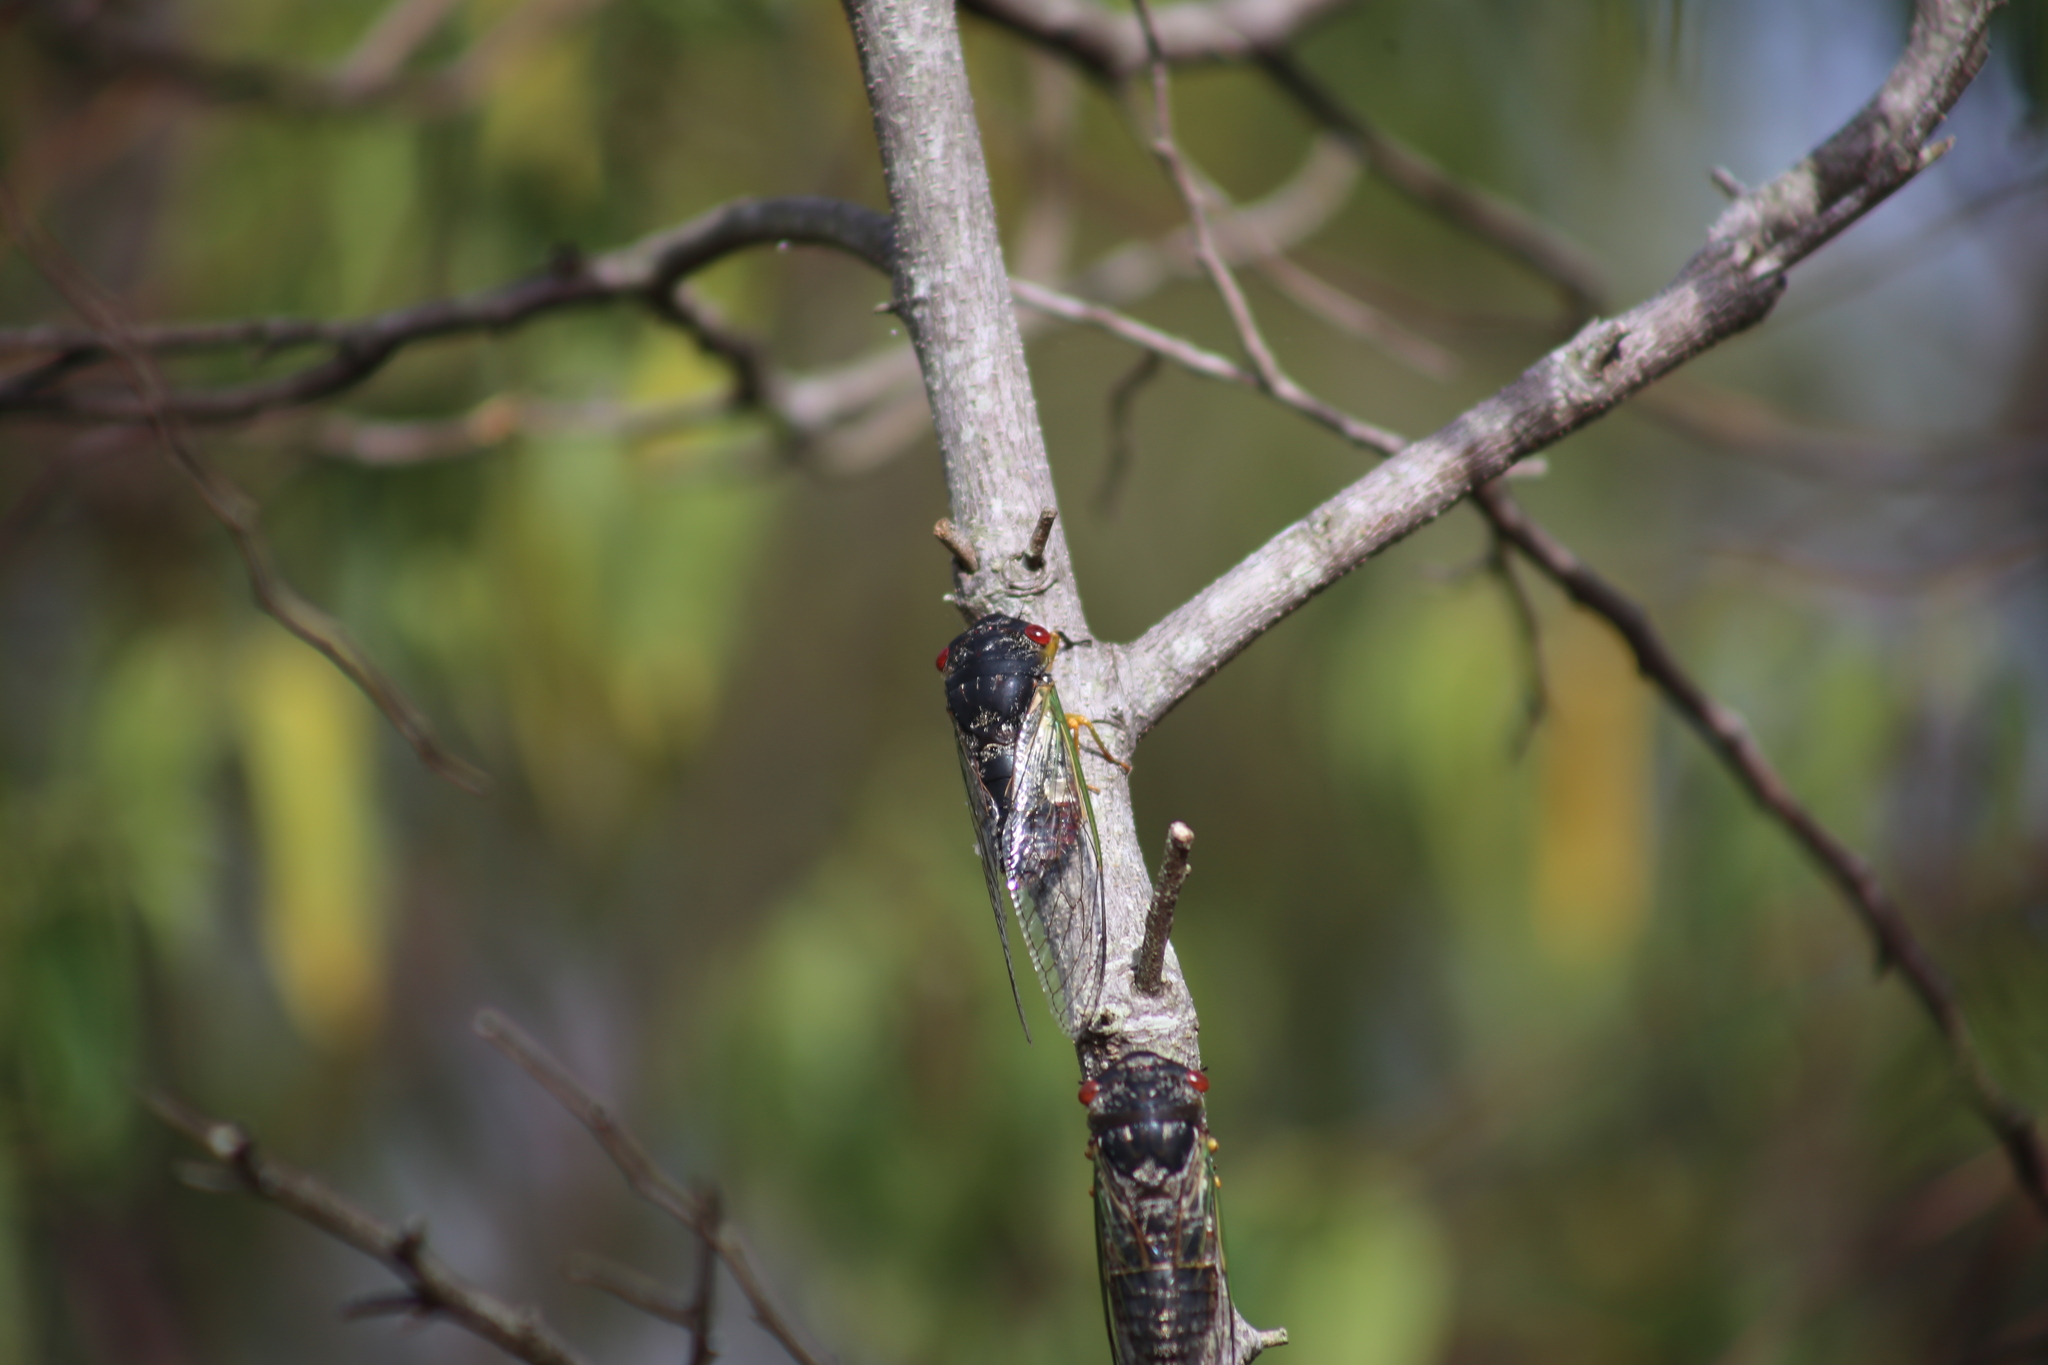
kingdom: Animalia
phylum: Arthropoda
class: Insecta
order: Hemiptera
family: Cicadidae
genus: Psaltoda
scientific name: Psaltoda claripennis
